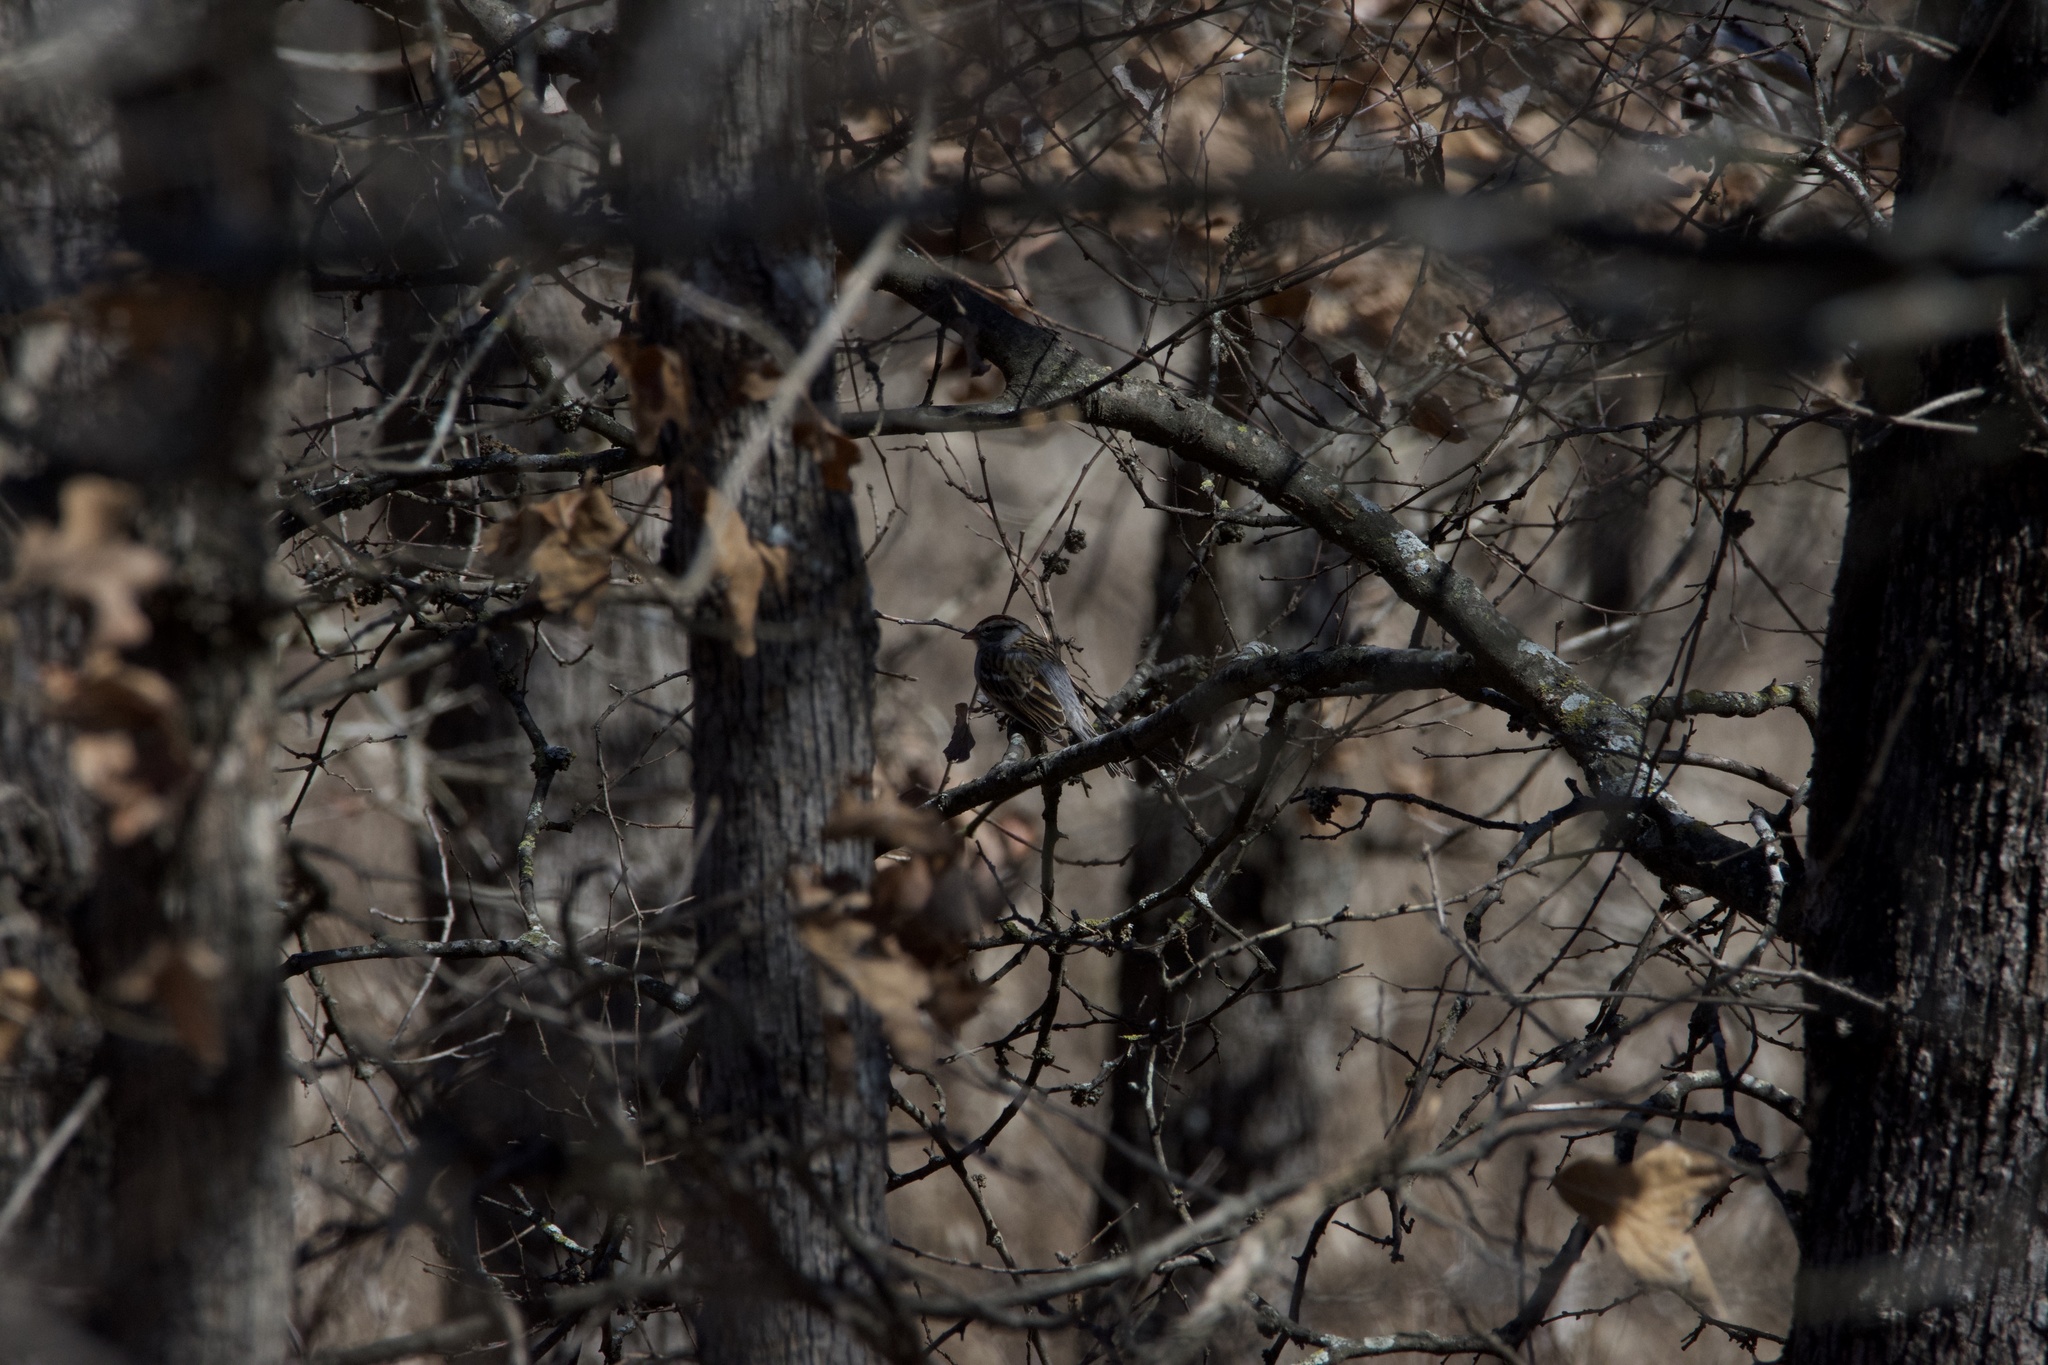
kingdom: Animalia
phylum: Chordata
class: Aves
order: Passeriformes
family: Passerellidae
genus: Spizella
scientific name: Spizella passerina
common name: Chipping sparrow
